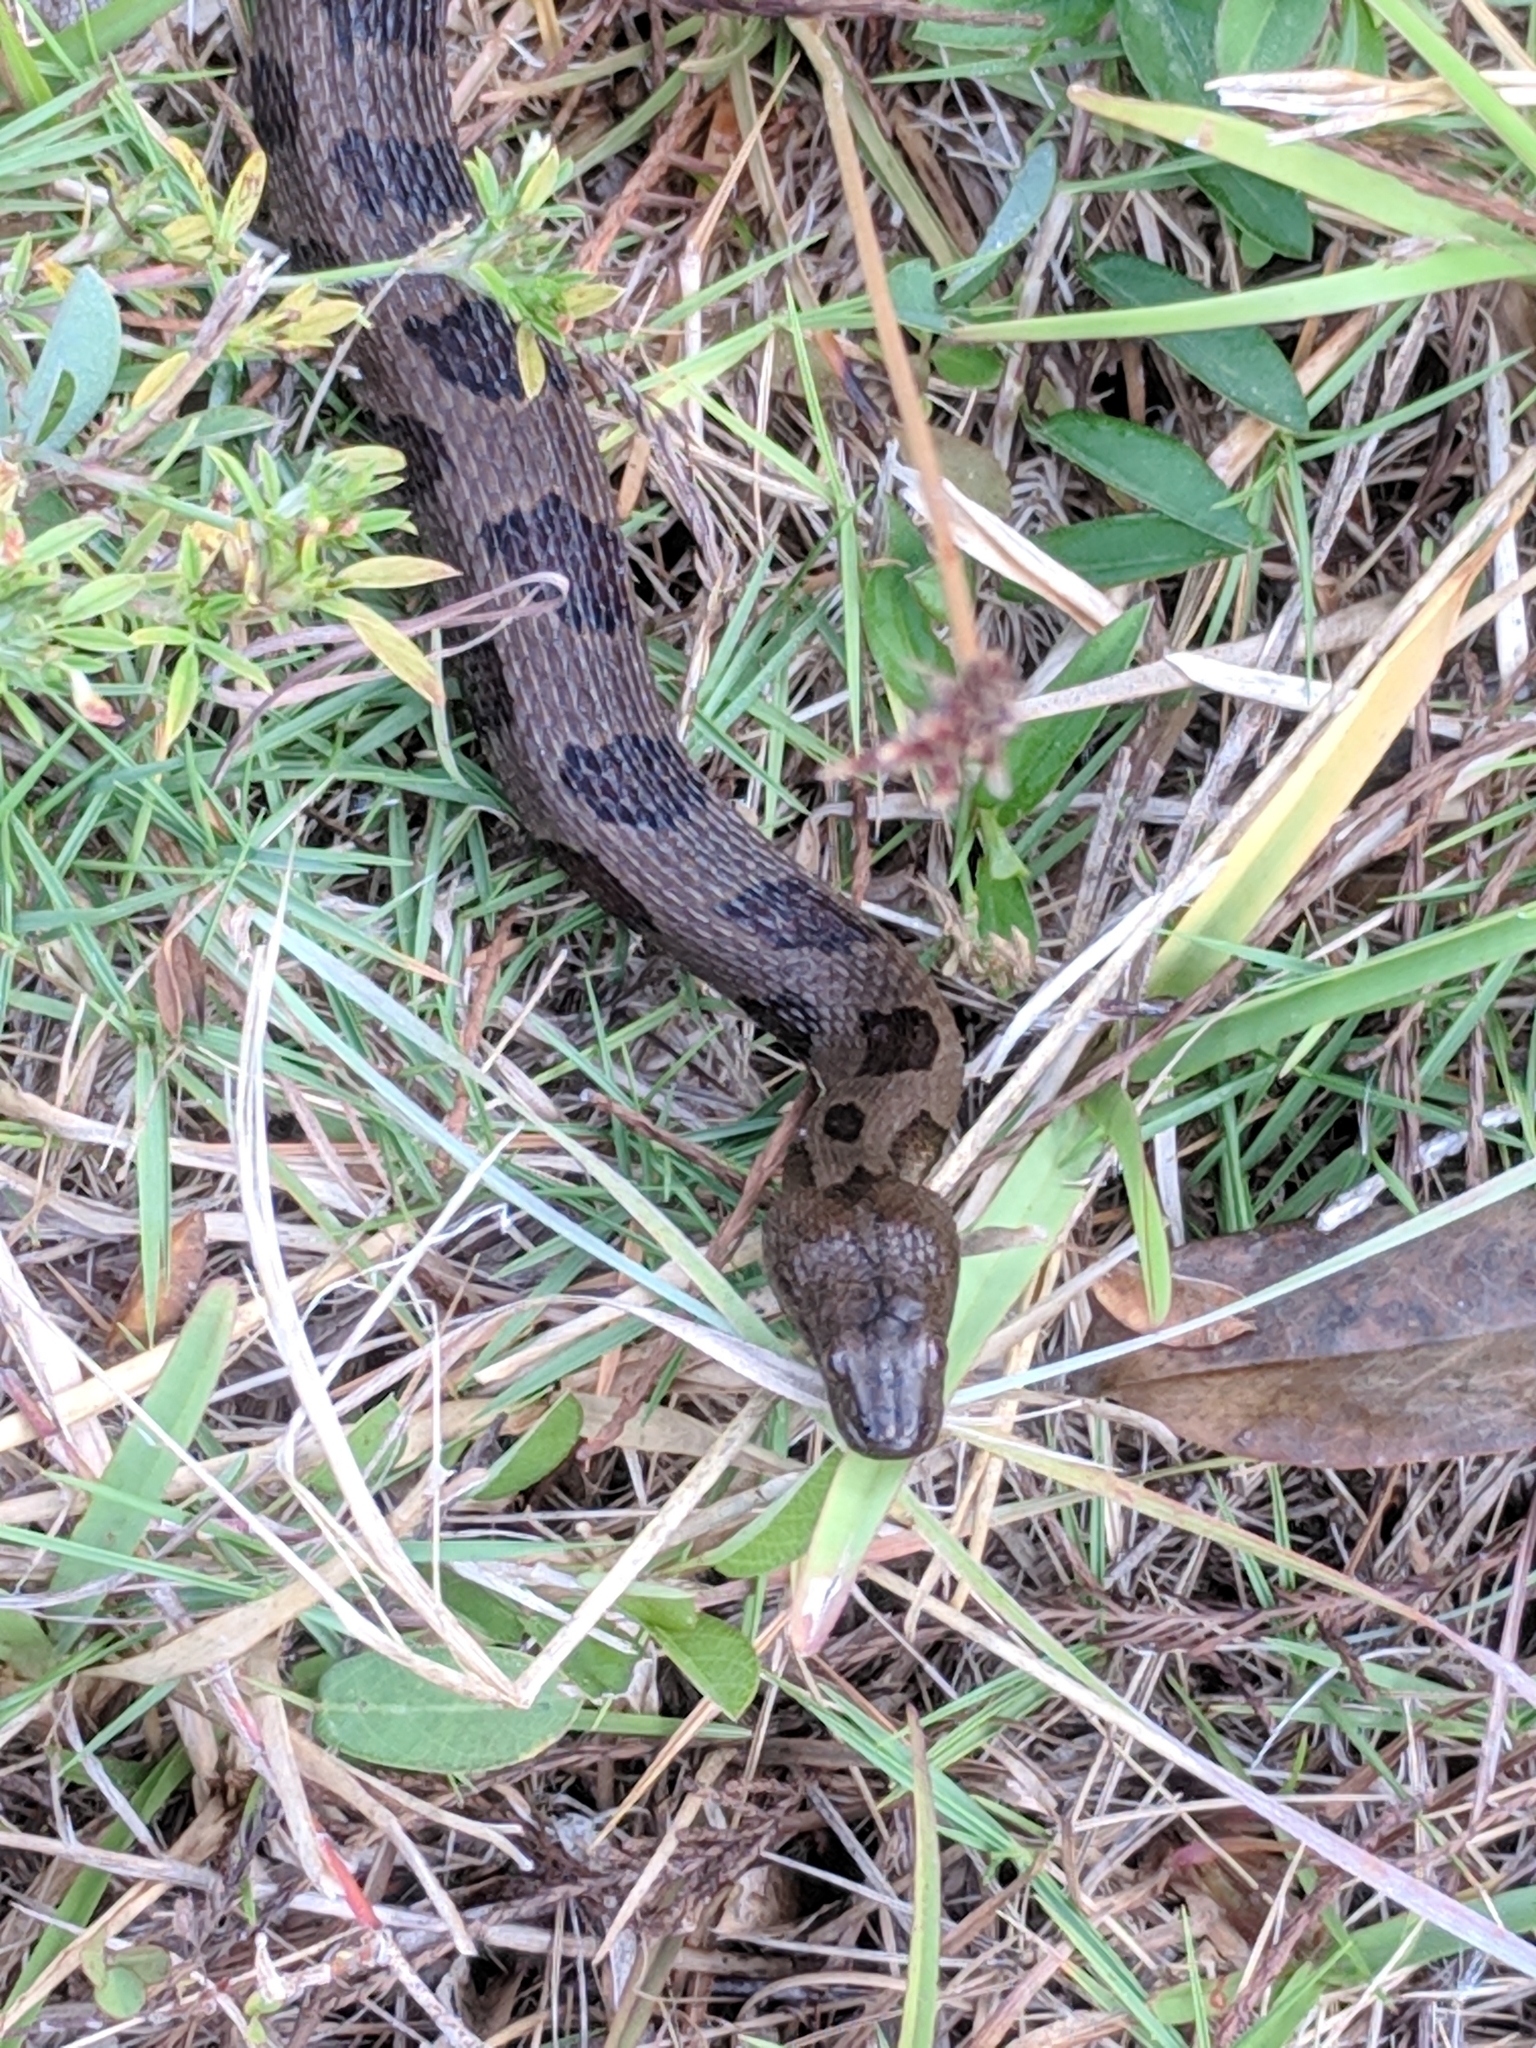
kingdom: Animalia
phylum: Chordata
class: Squamata
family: Colubridae
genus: Nerodia
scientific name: Nerodia taxispilota
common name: Brown water snake
